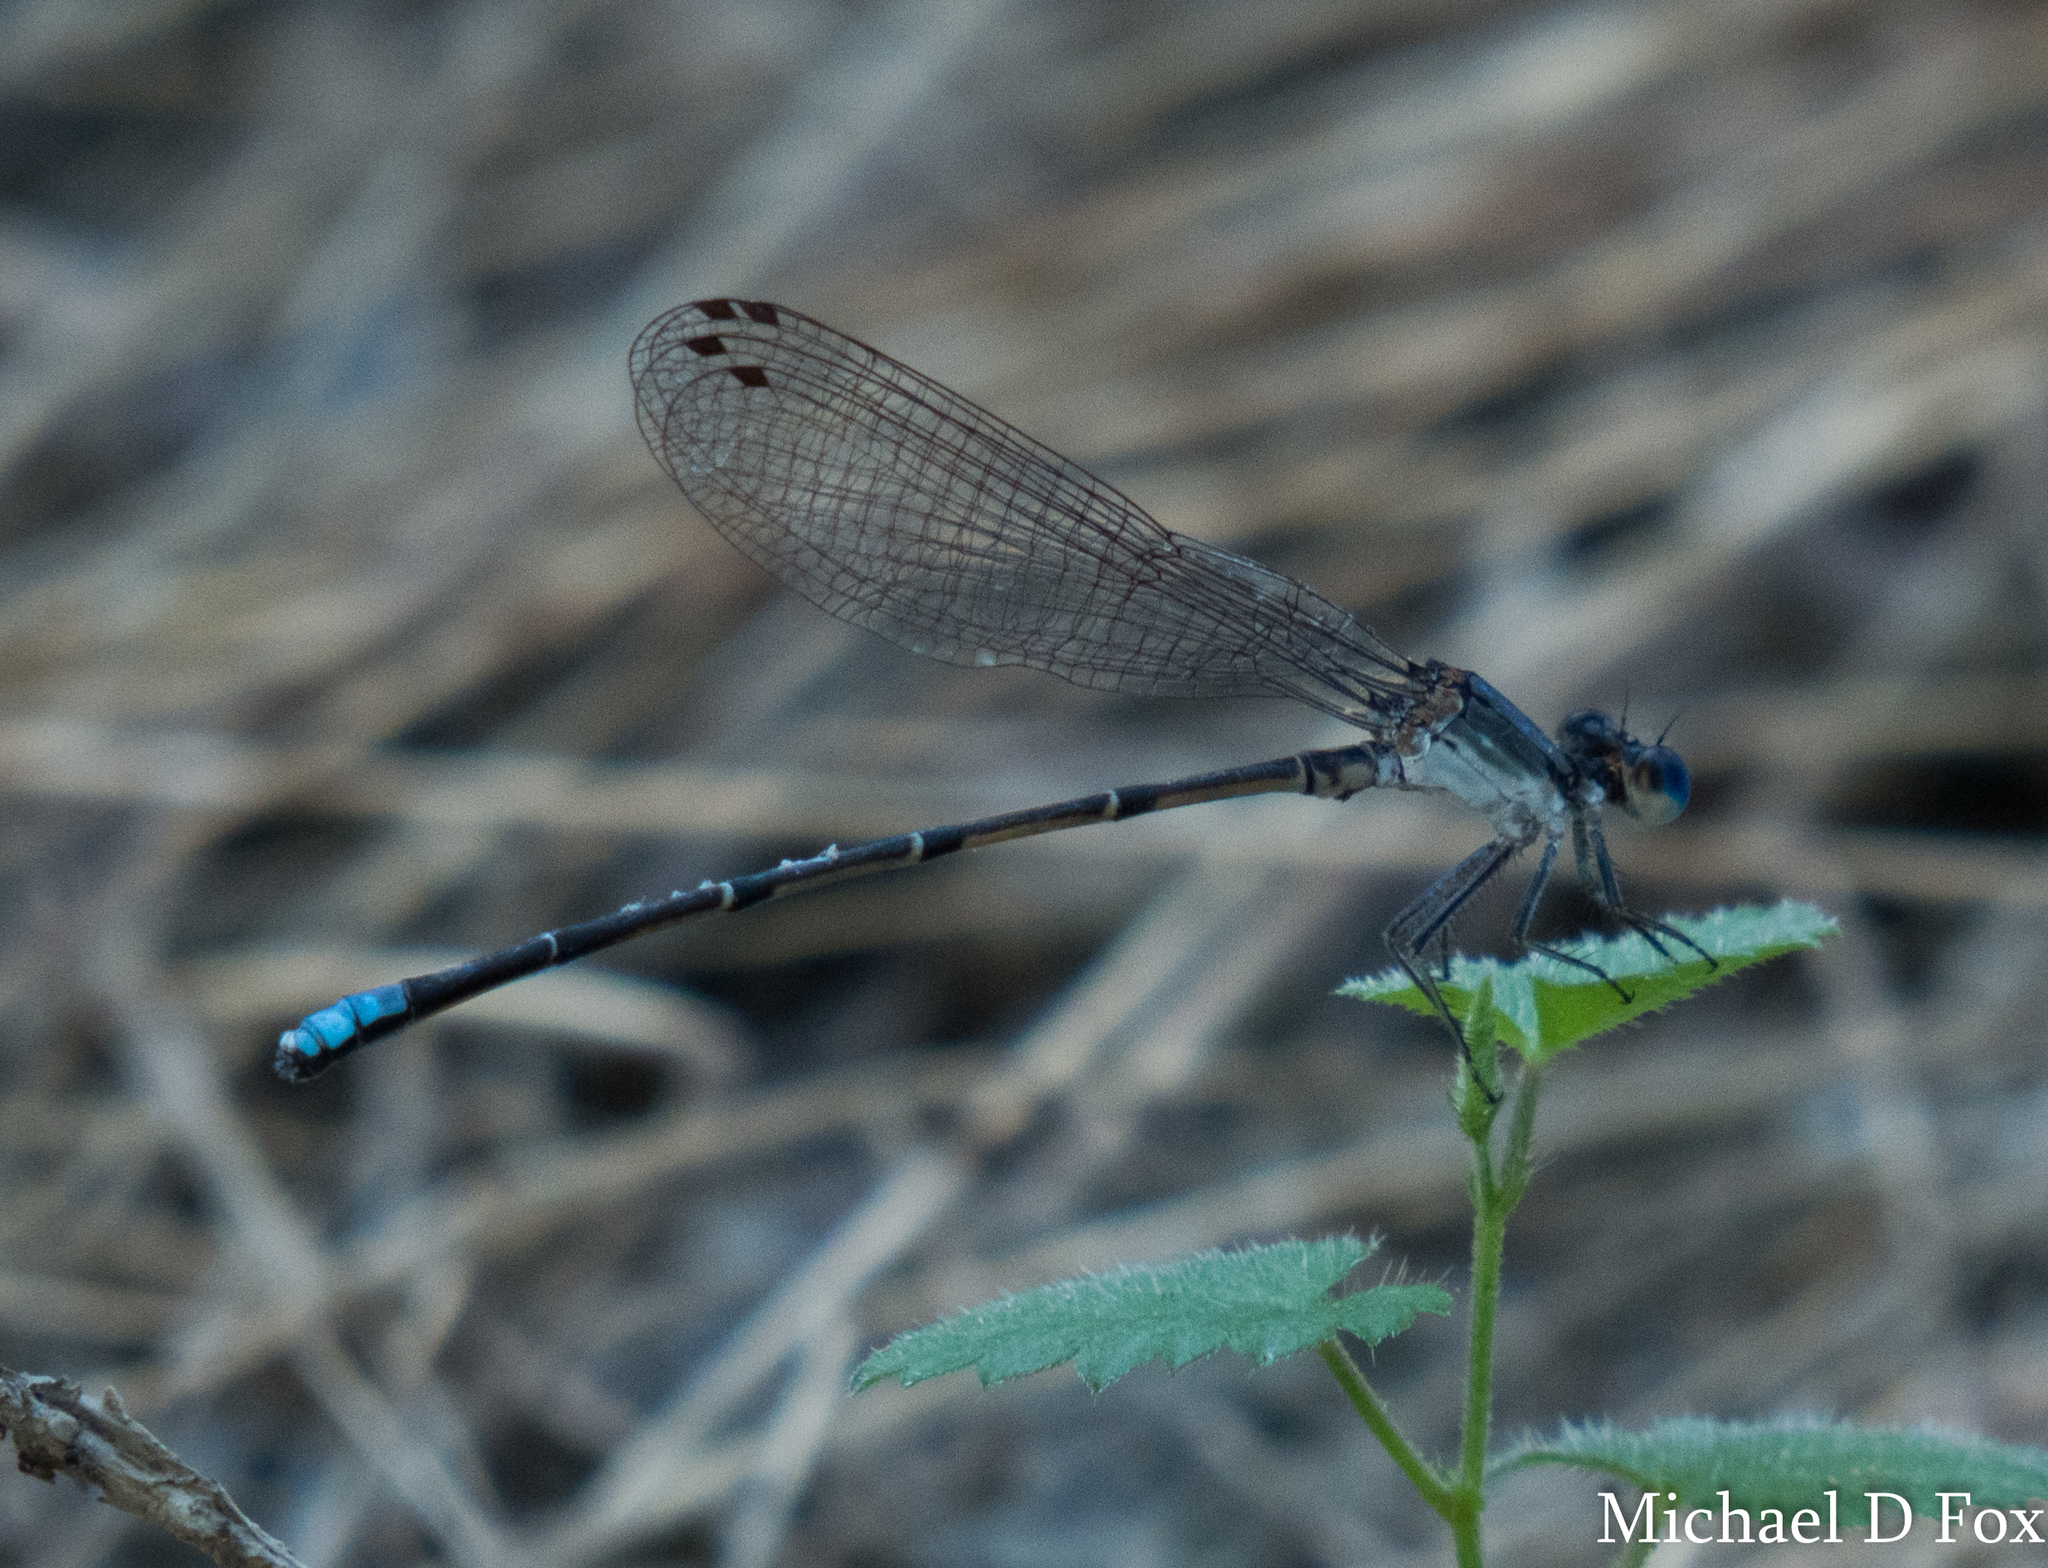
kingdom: Animalia
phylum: Arthropoda
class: Insecta
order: Odonata
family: Coenagrionidae
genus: Argia
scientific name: Argia apicalis
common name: Blue-fronted dancer
